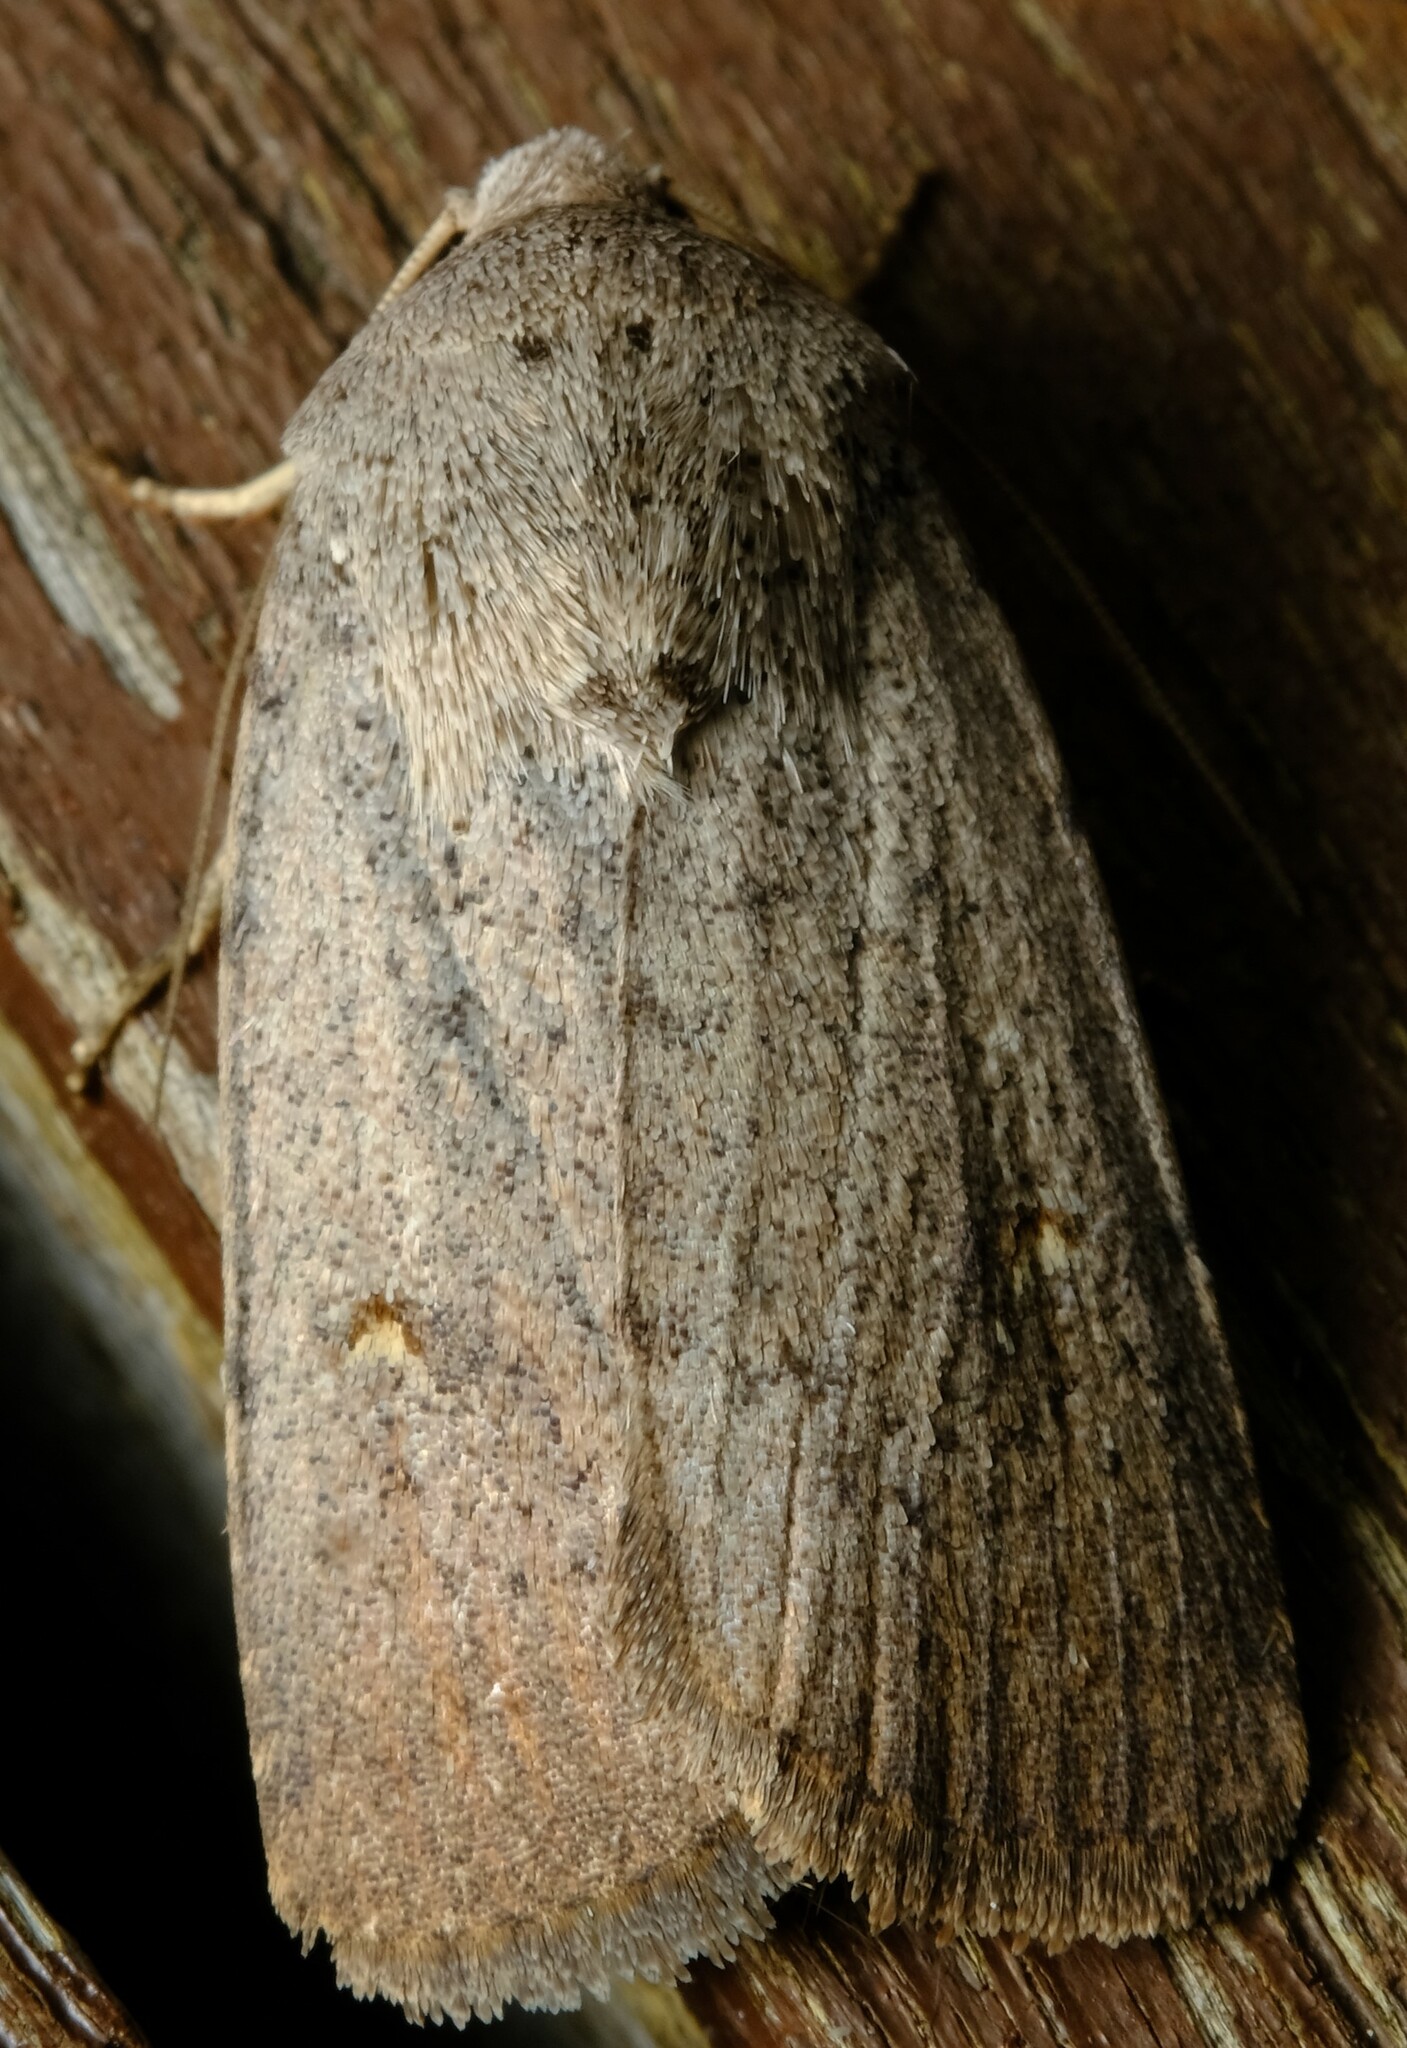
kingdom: Animalia
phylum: Arthropoda
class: Insecta
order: Lepidoptera
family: Noctuidae
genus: Proteuxoa
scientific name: Proteuxoa adelopa
